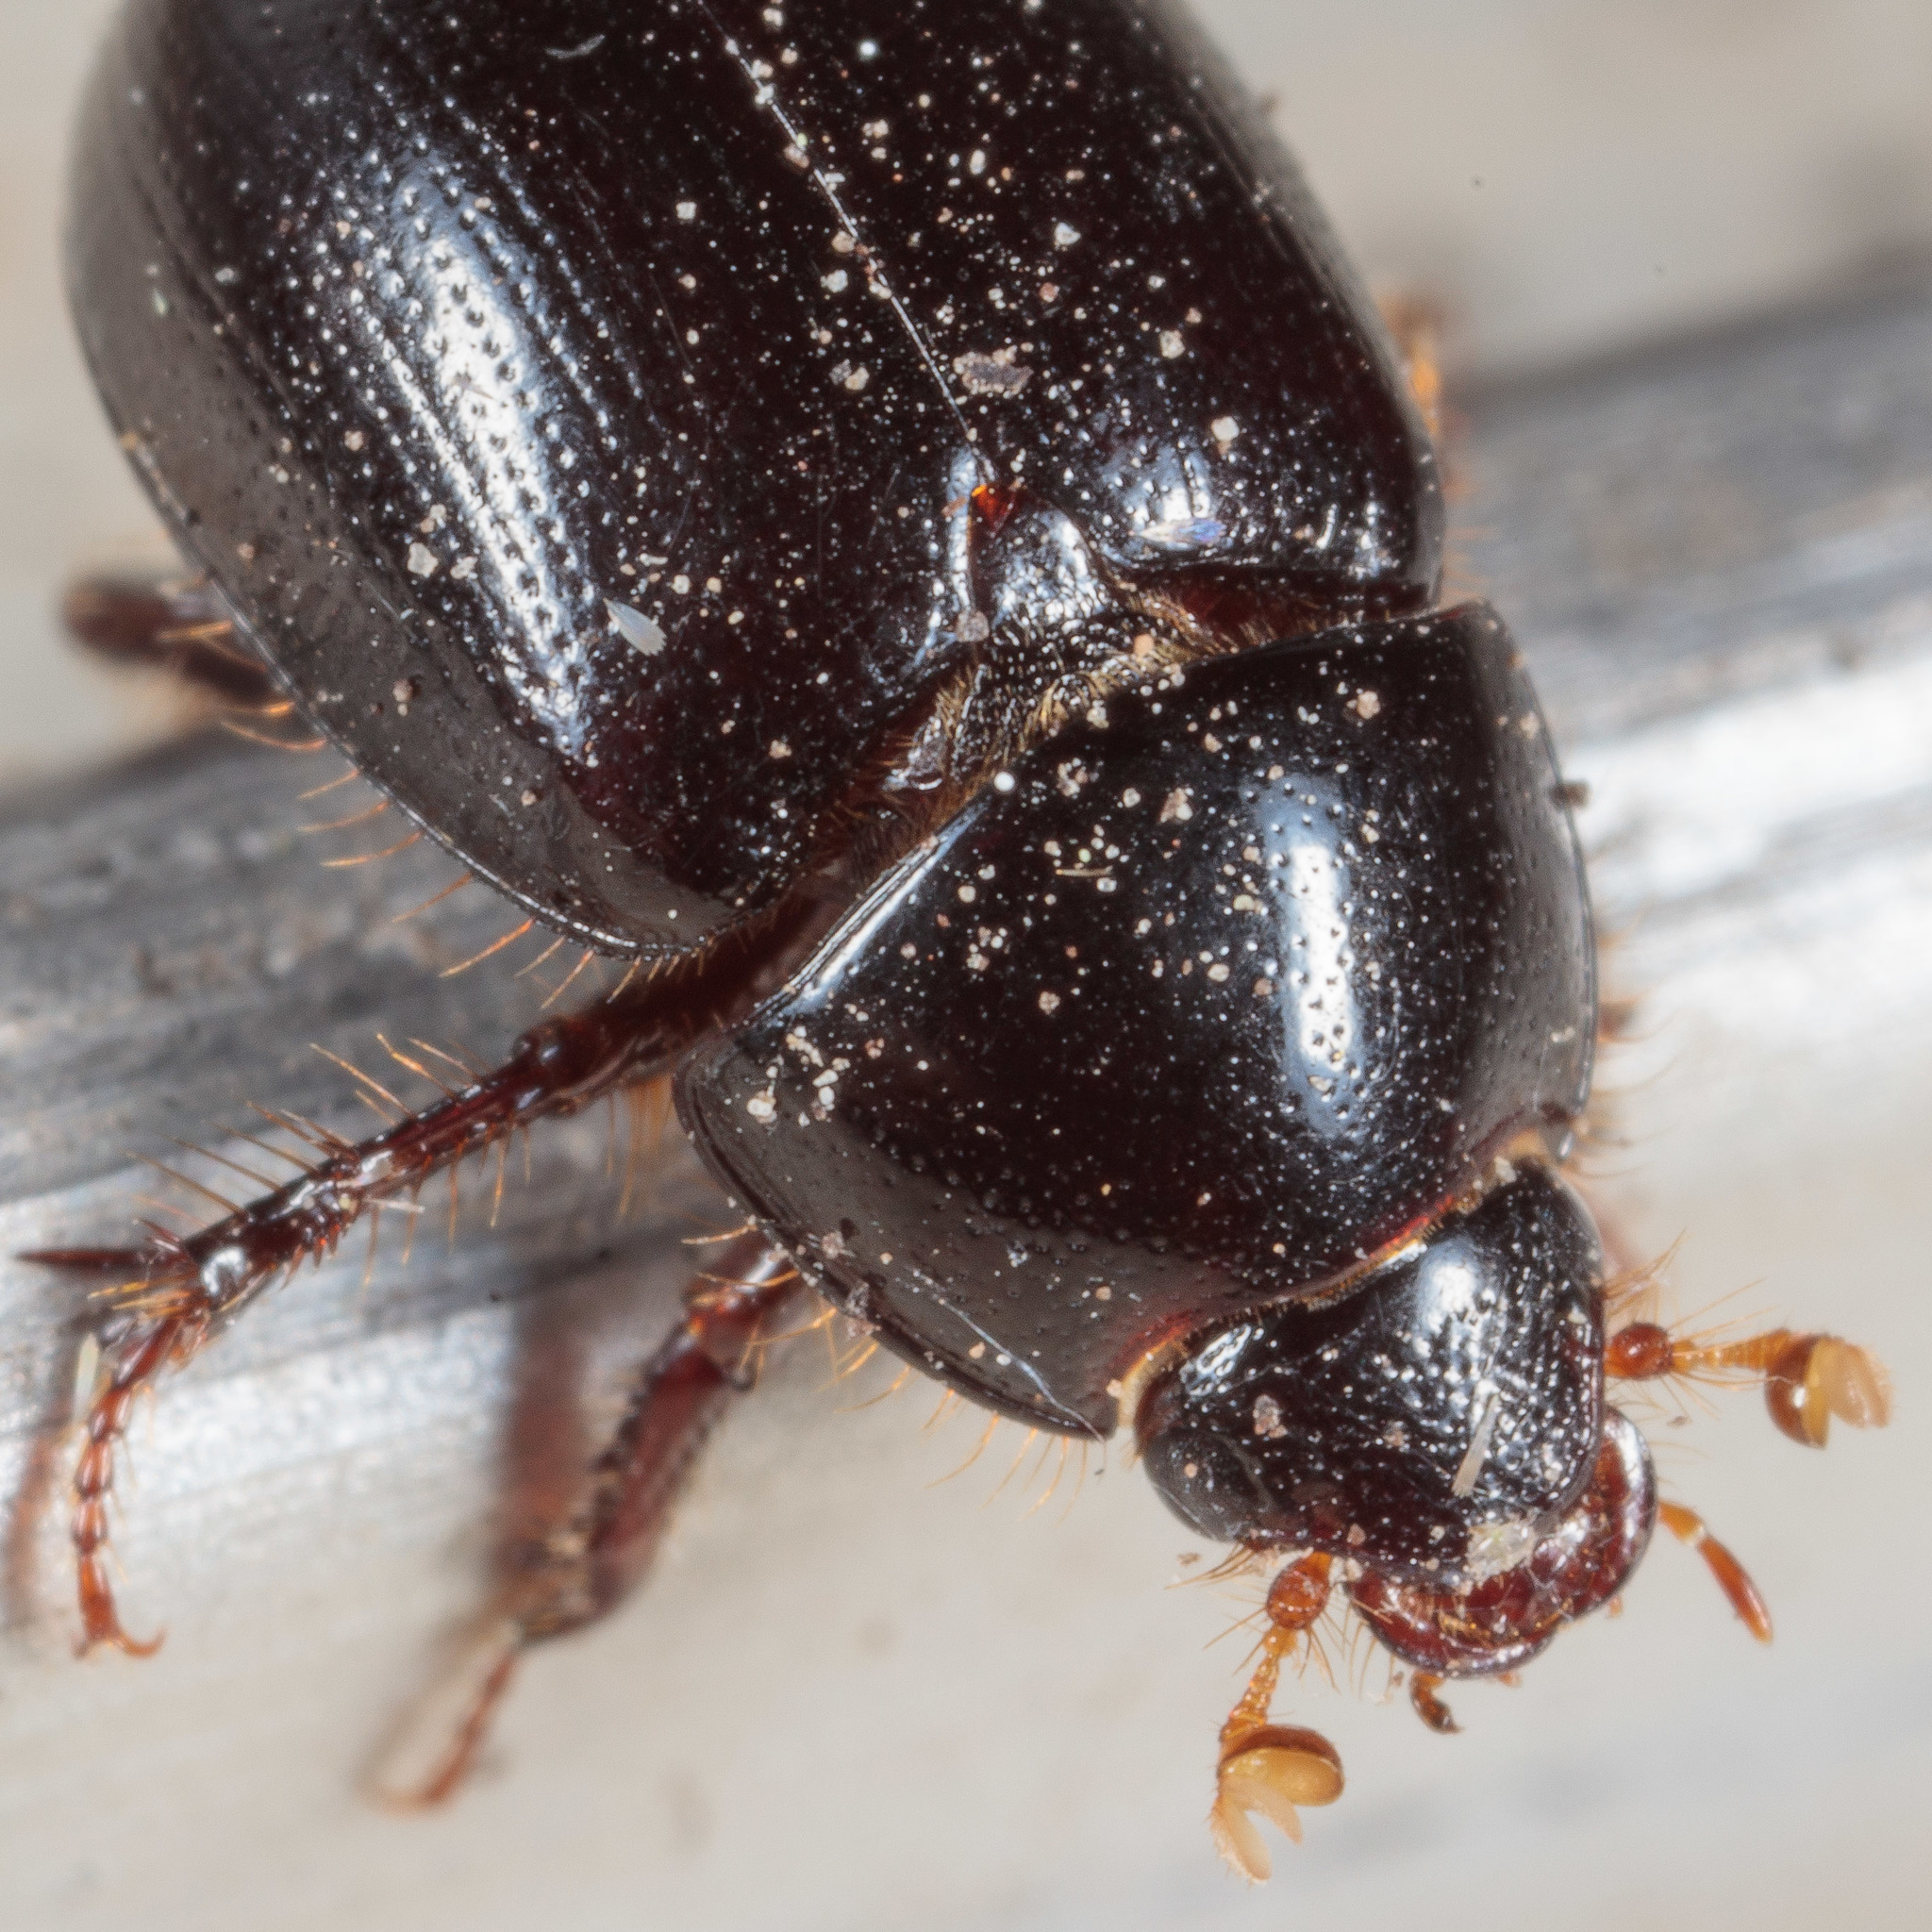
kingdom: Animalia
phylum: Arthropoda
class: Insecta
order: Coleoptera
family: Hybosoridae
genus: Hybosorus
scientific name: Hybosorus illigeri
